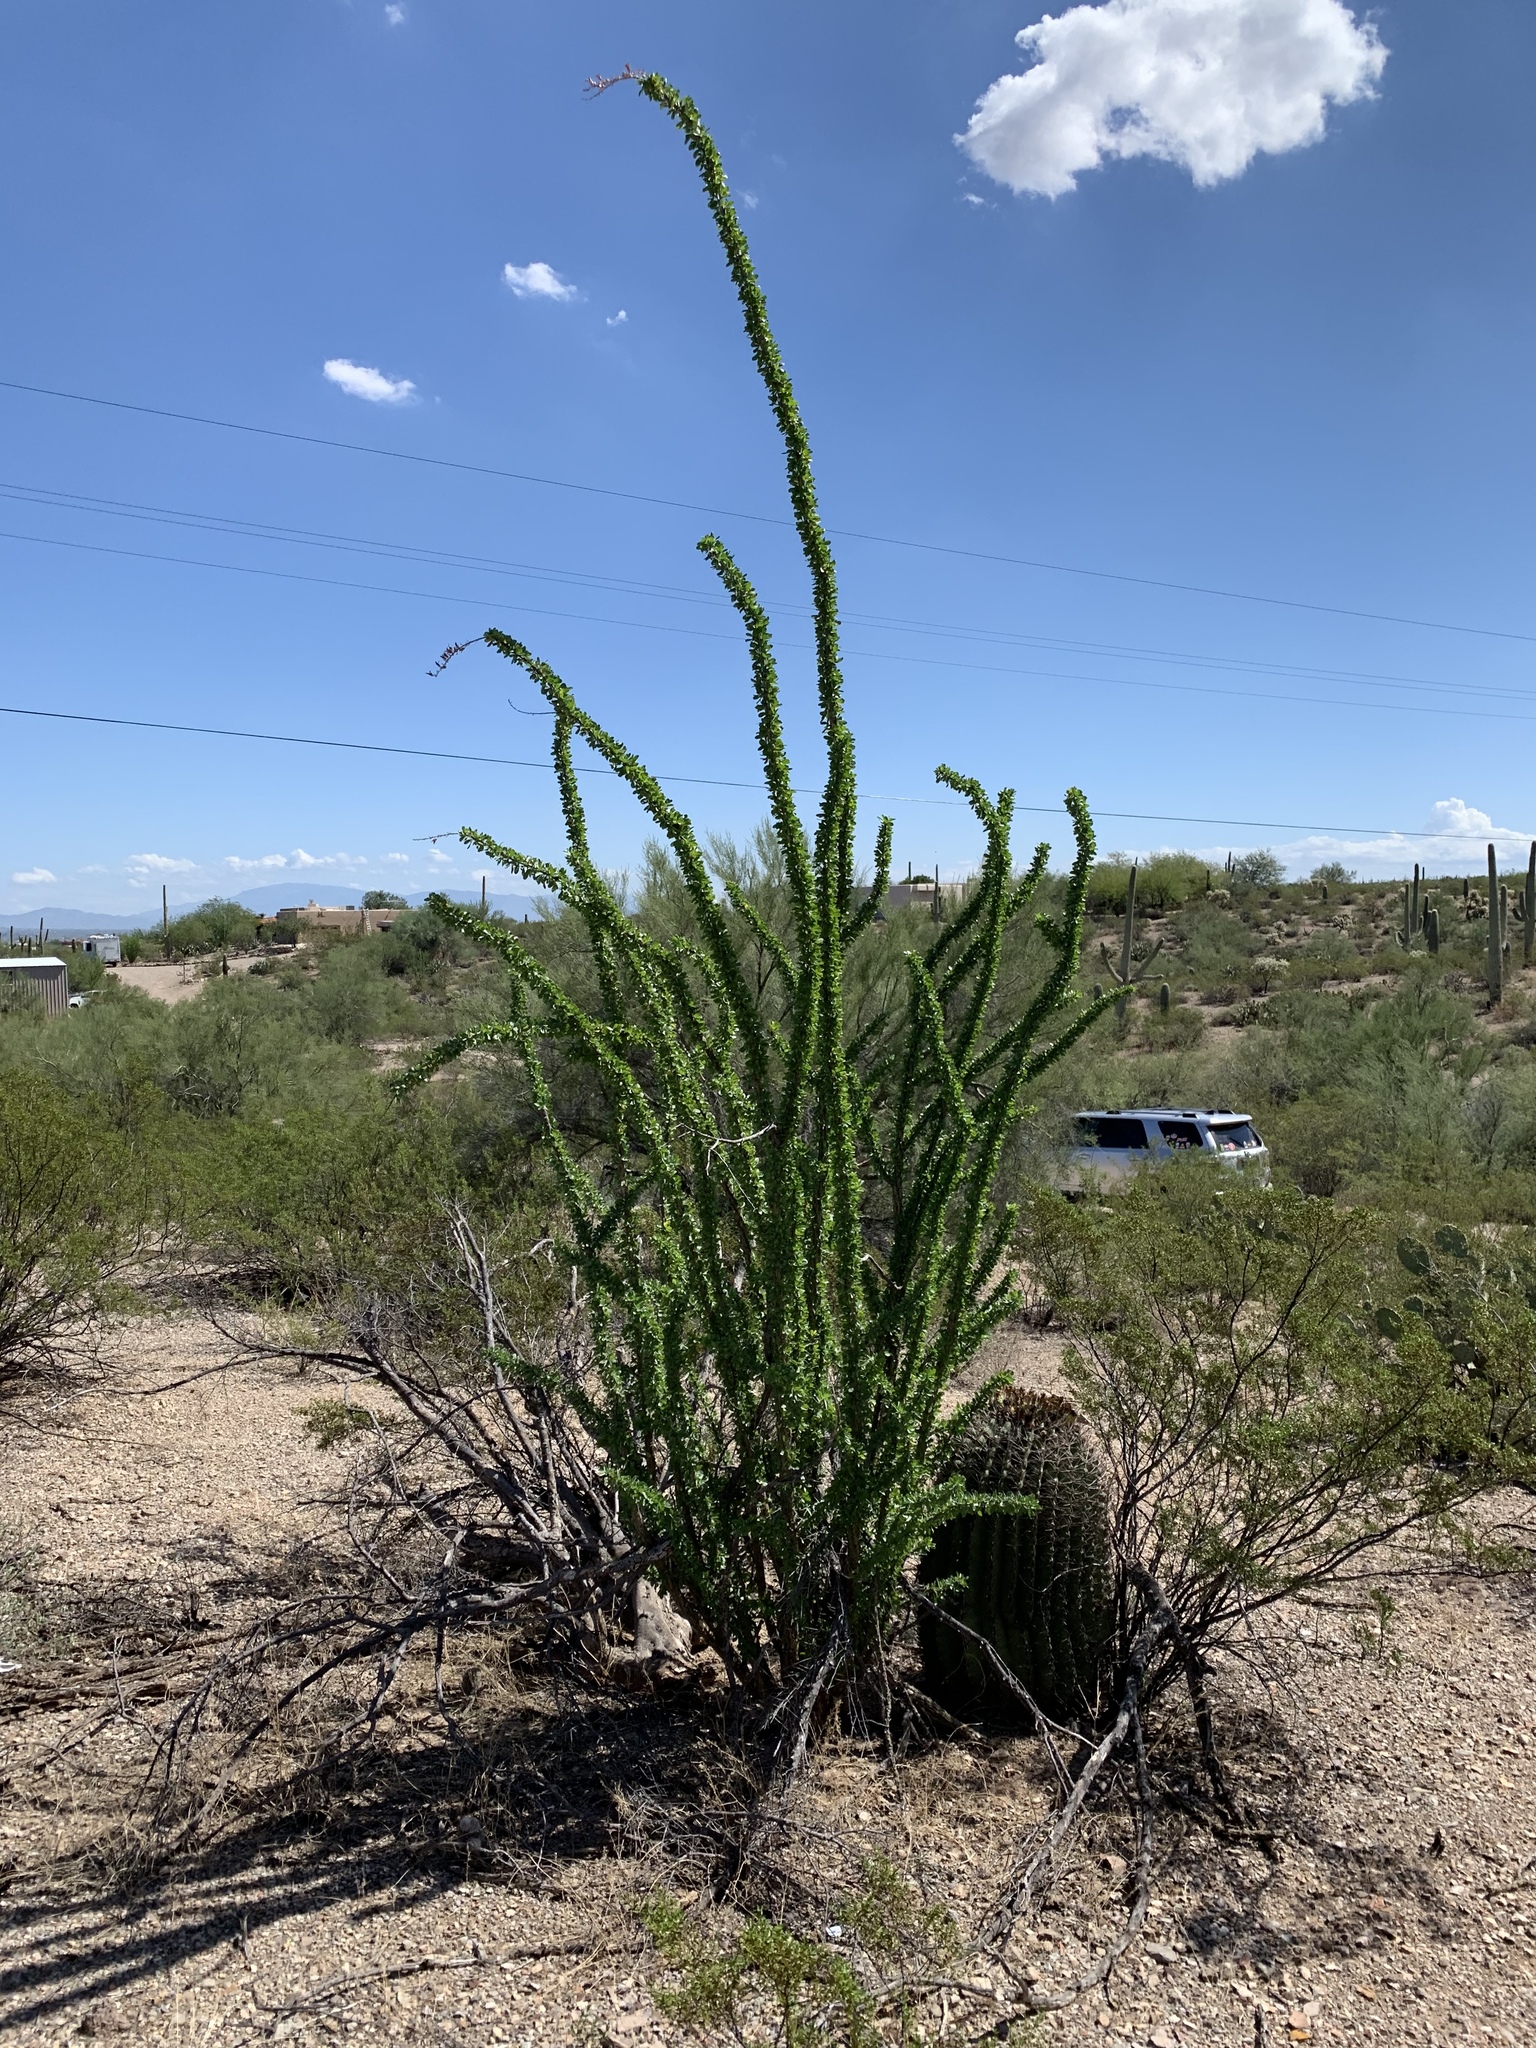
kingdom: Plantae
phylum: Tracheophyta
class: Magnoliopsida
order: Ericales
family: Fouquieriaceae
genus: Fouquieria
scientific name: Fouquieria splendens
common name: Vine-cactus
